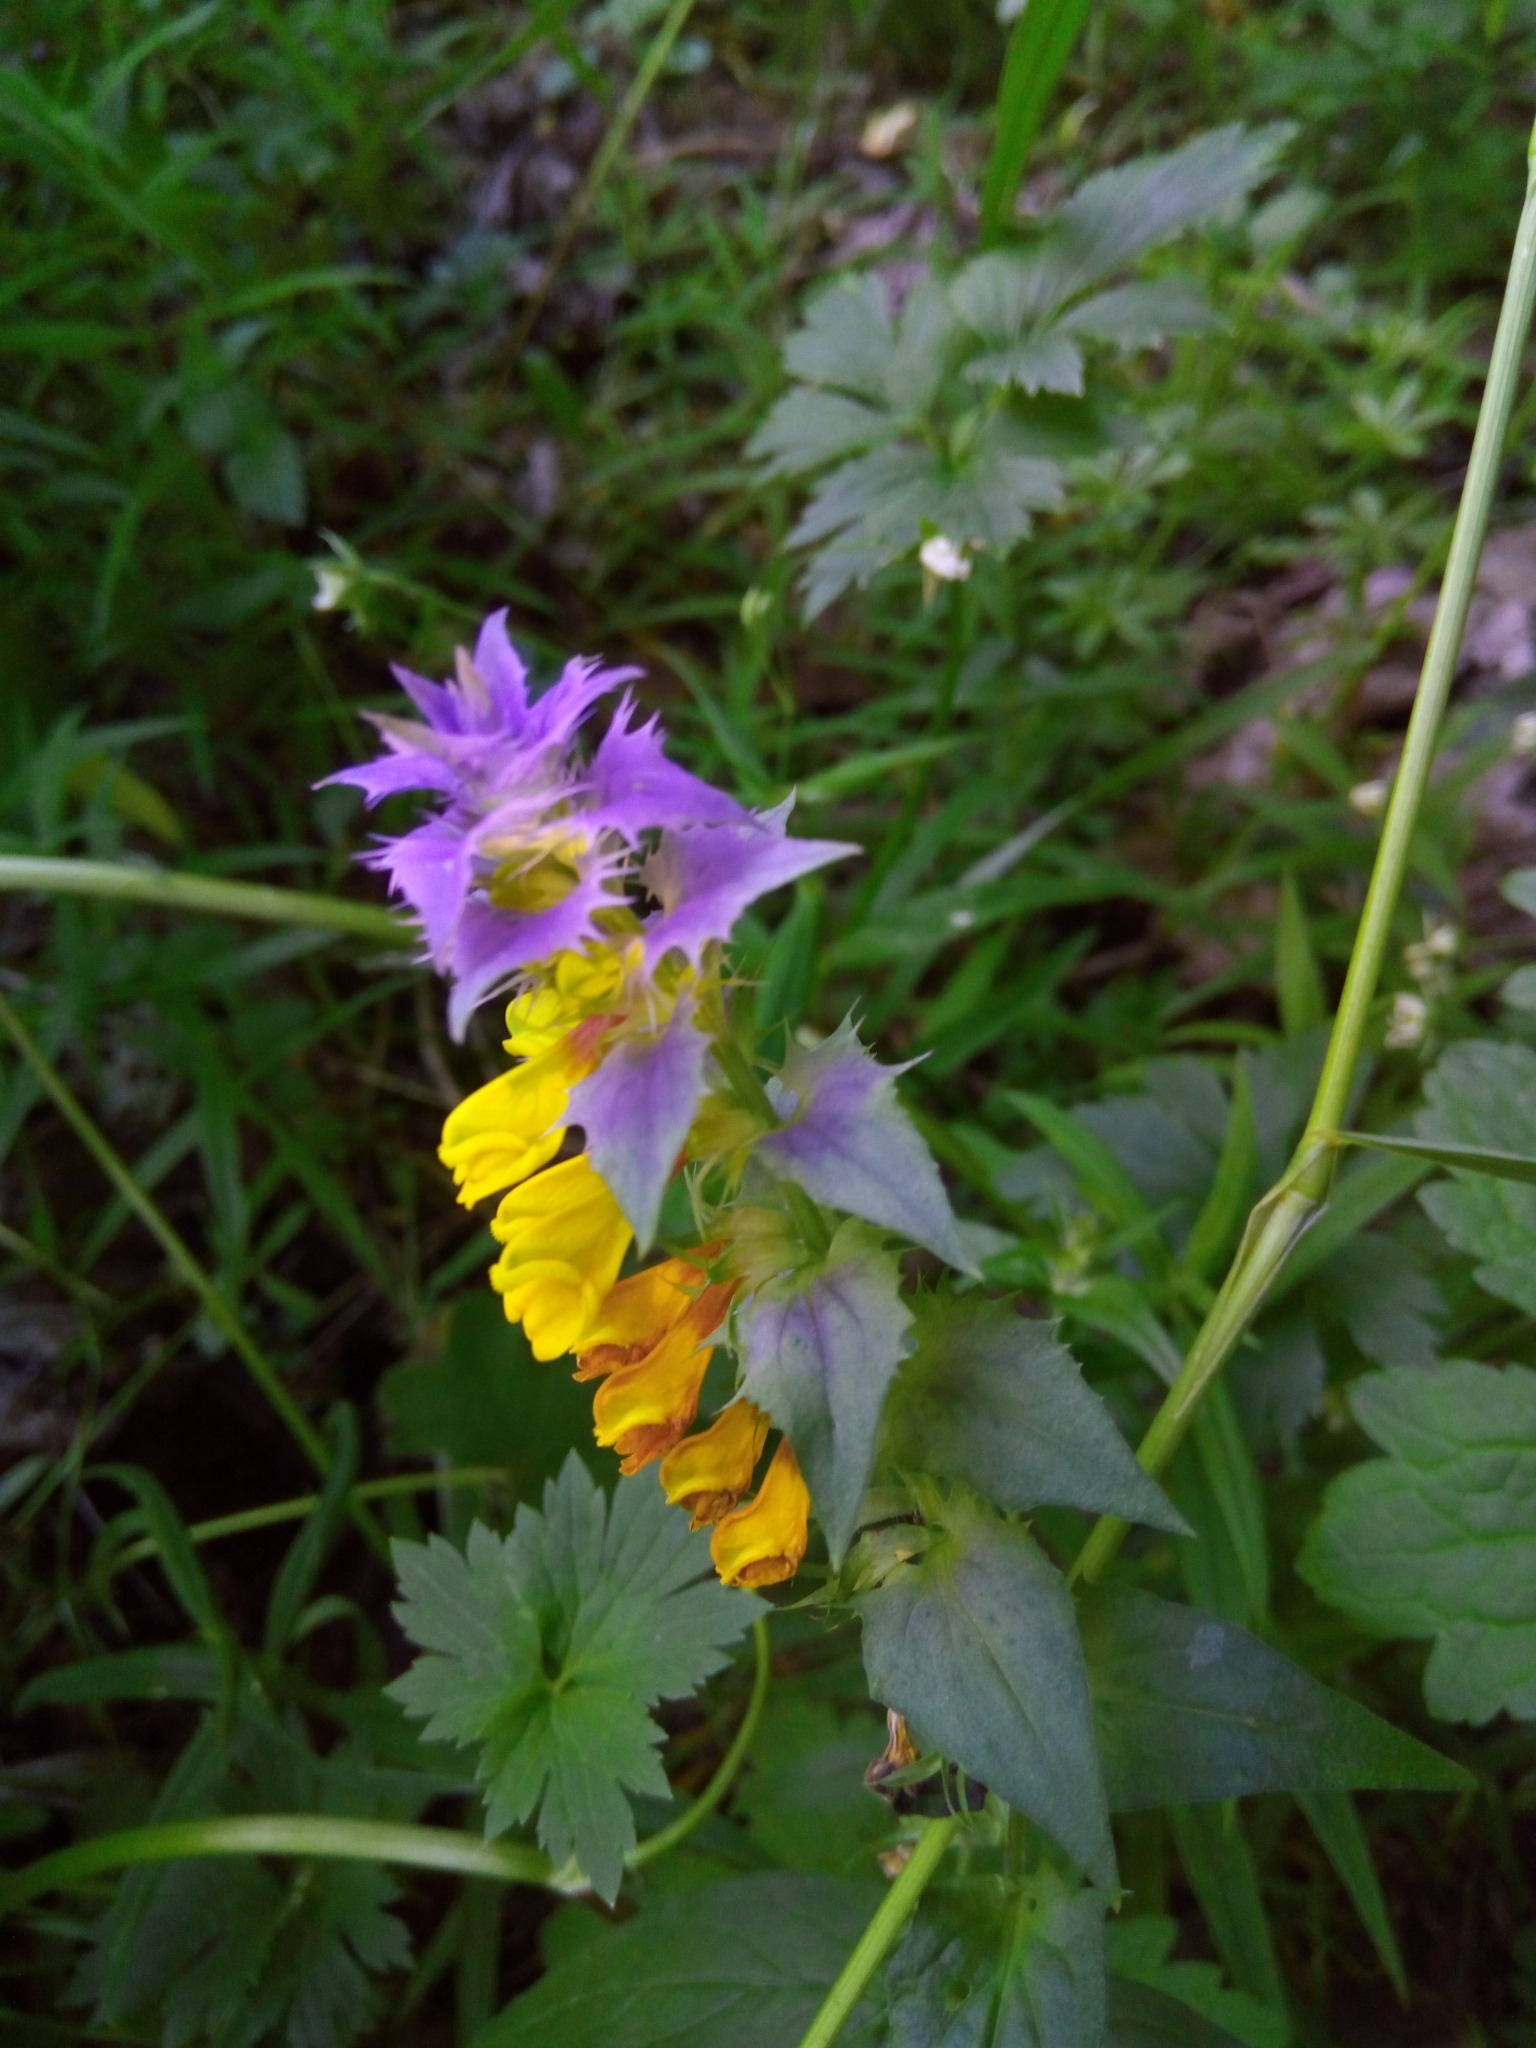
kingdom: Plantae
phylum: Tracheophyta
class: Magnoliopsida
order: Lamiales
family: Orobanchaceae
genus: Melampyrum
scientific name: Melampyrum nemorosum
